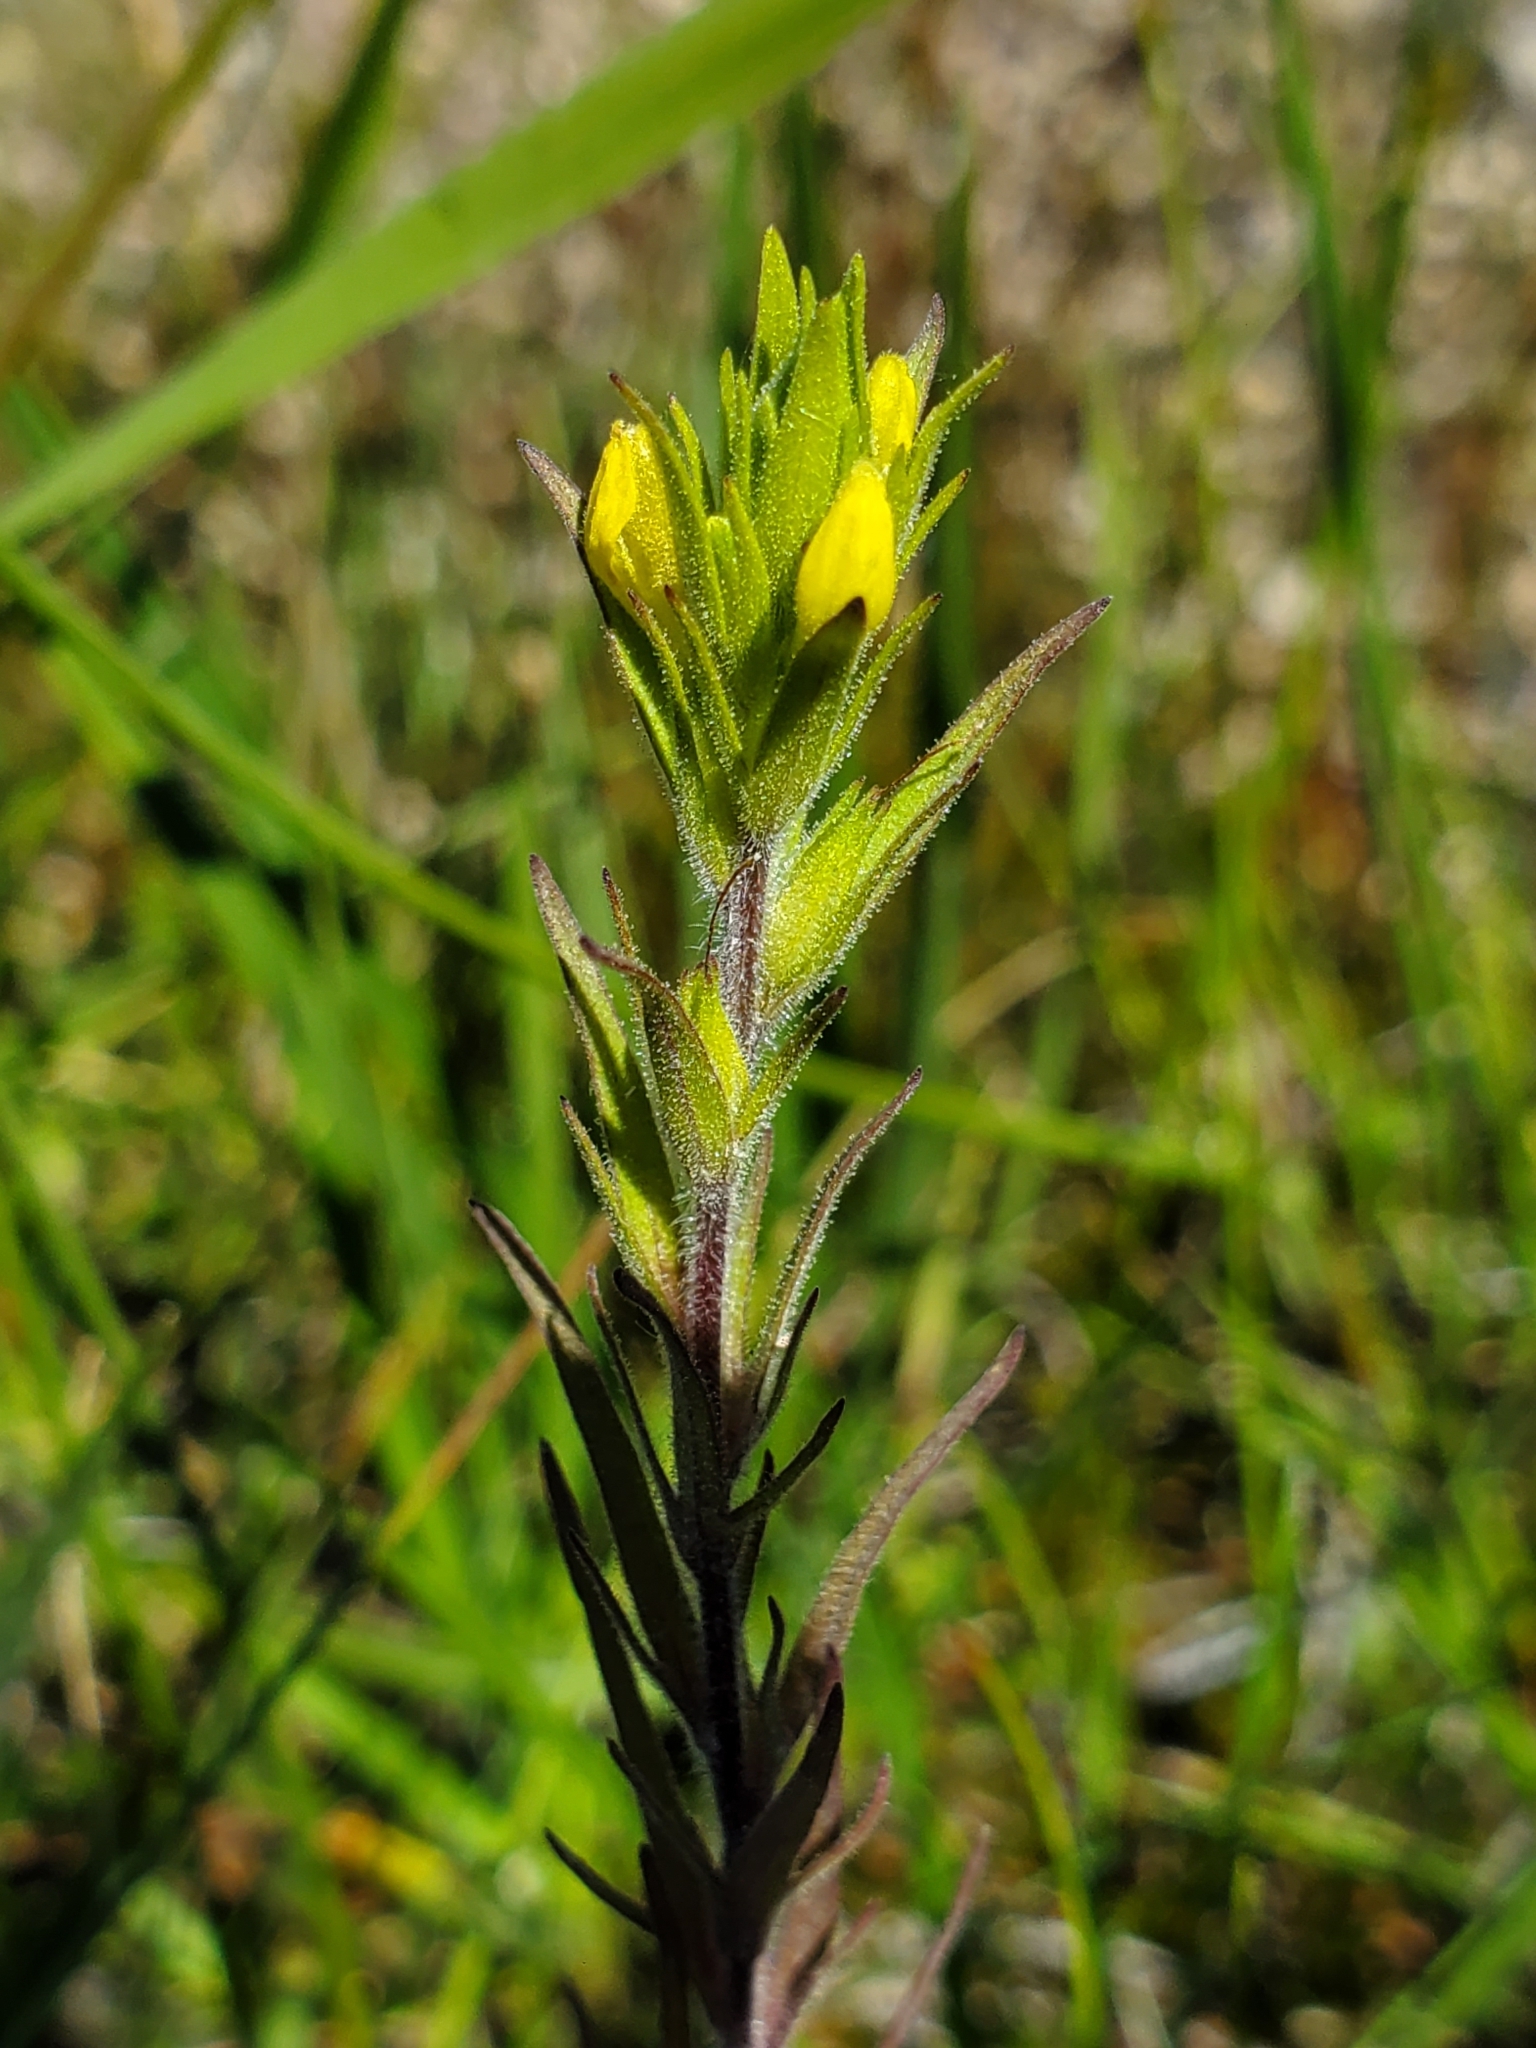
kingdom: Plantae
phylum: Tracheophyta
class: Magnoliopsida
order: Lamiales
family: Orobanchaceae
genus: Orthocarpus
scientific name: Orthocarpus luteus
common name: Golden-tongue owl's-clover
